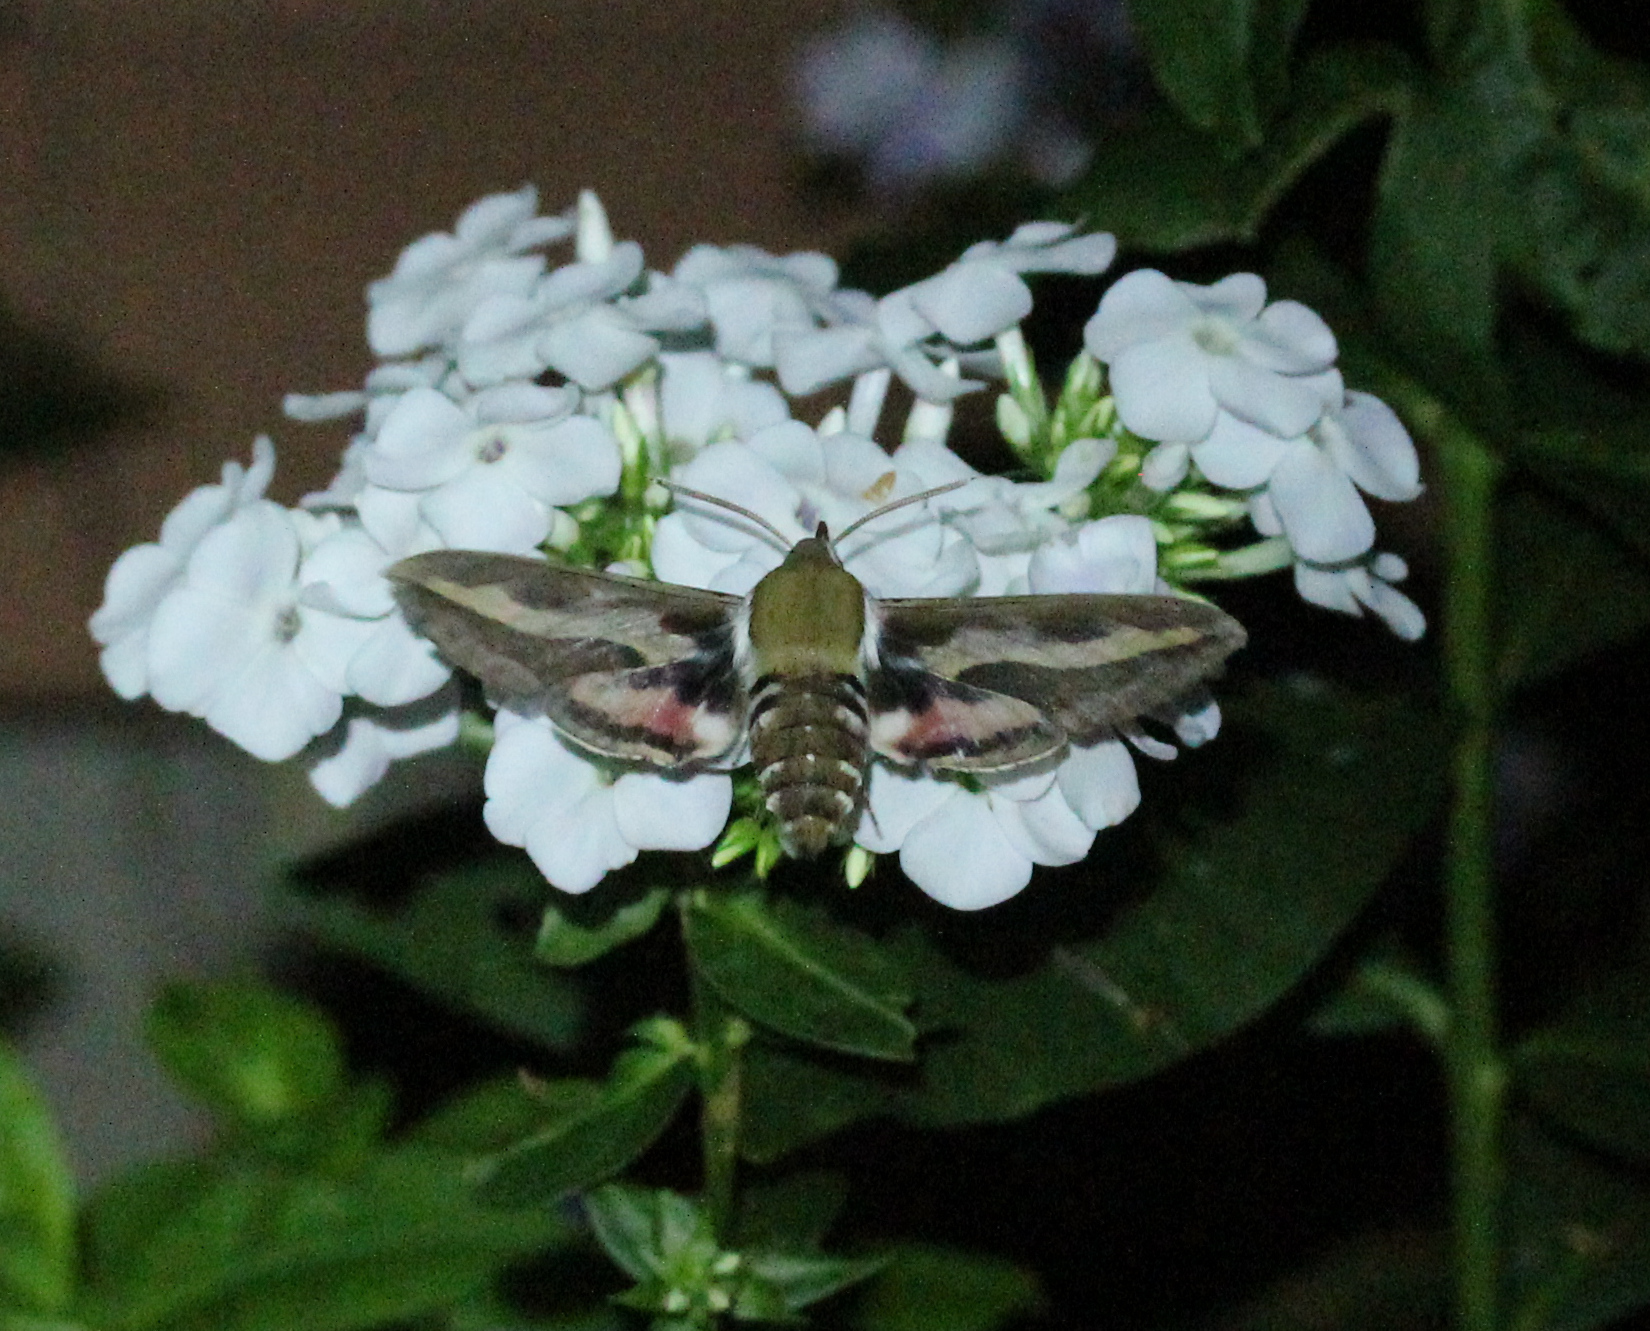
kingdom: Animalia
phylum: Arthropoda
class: Insecta
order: Lepidoptera
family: Sphingidae
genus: Hyles
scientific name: Hyles gallii
